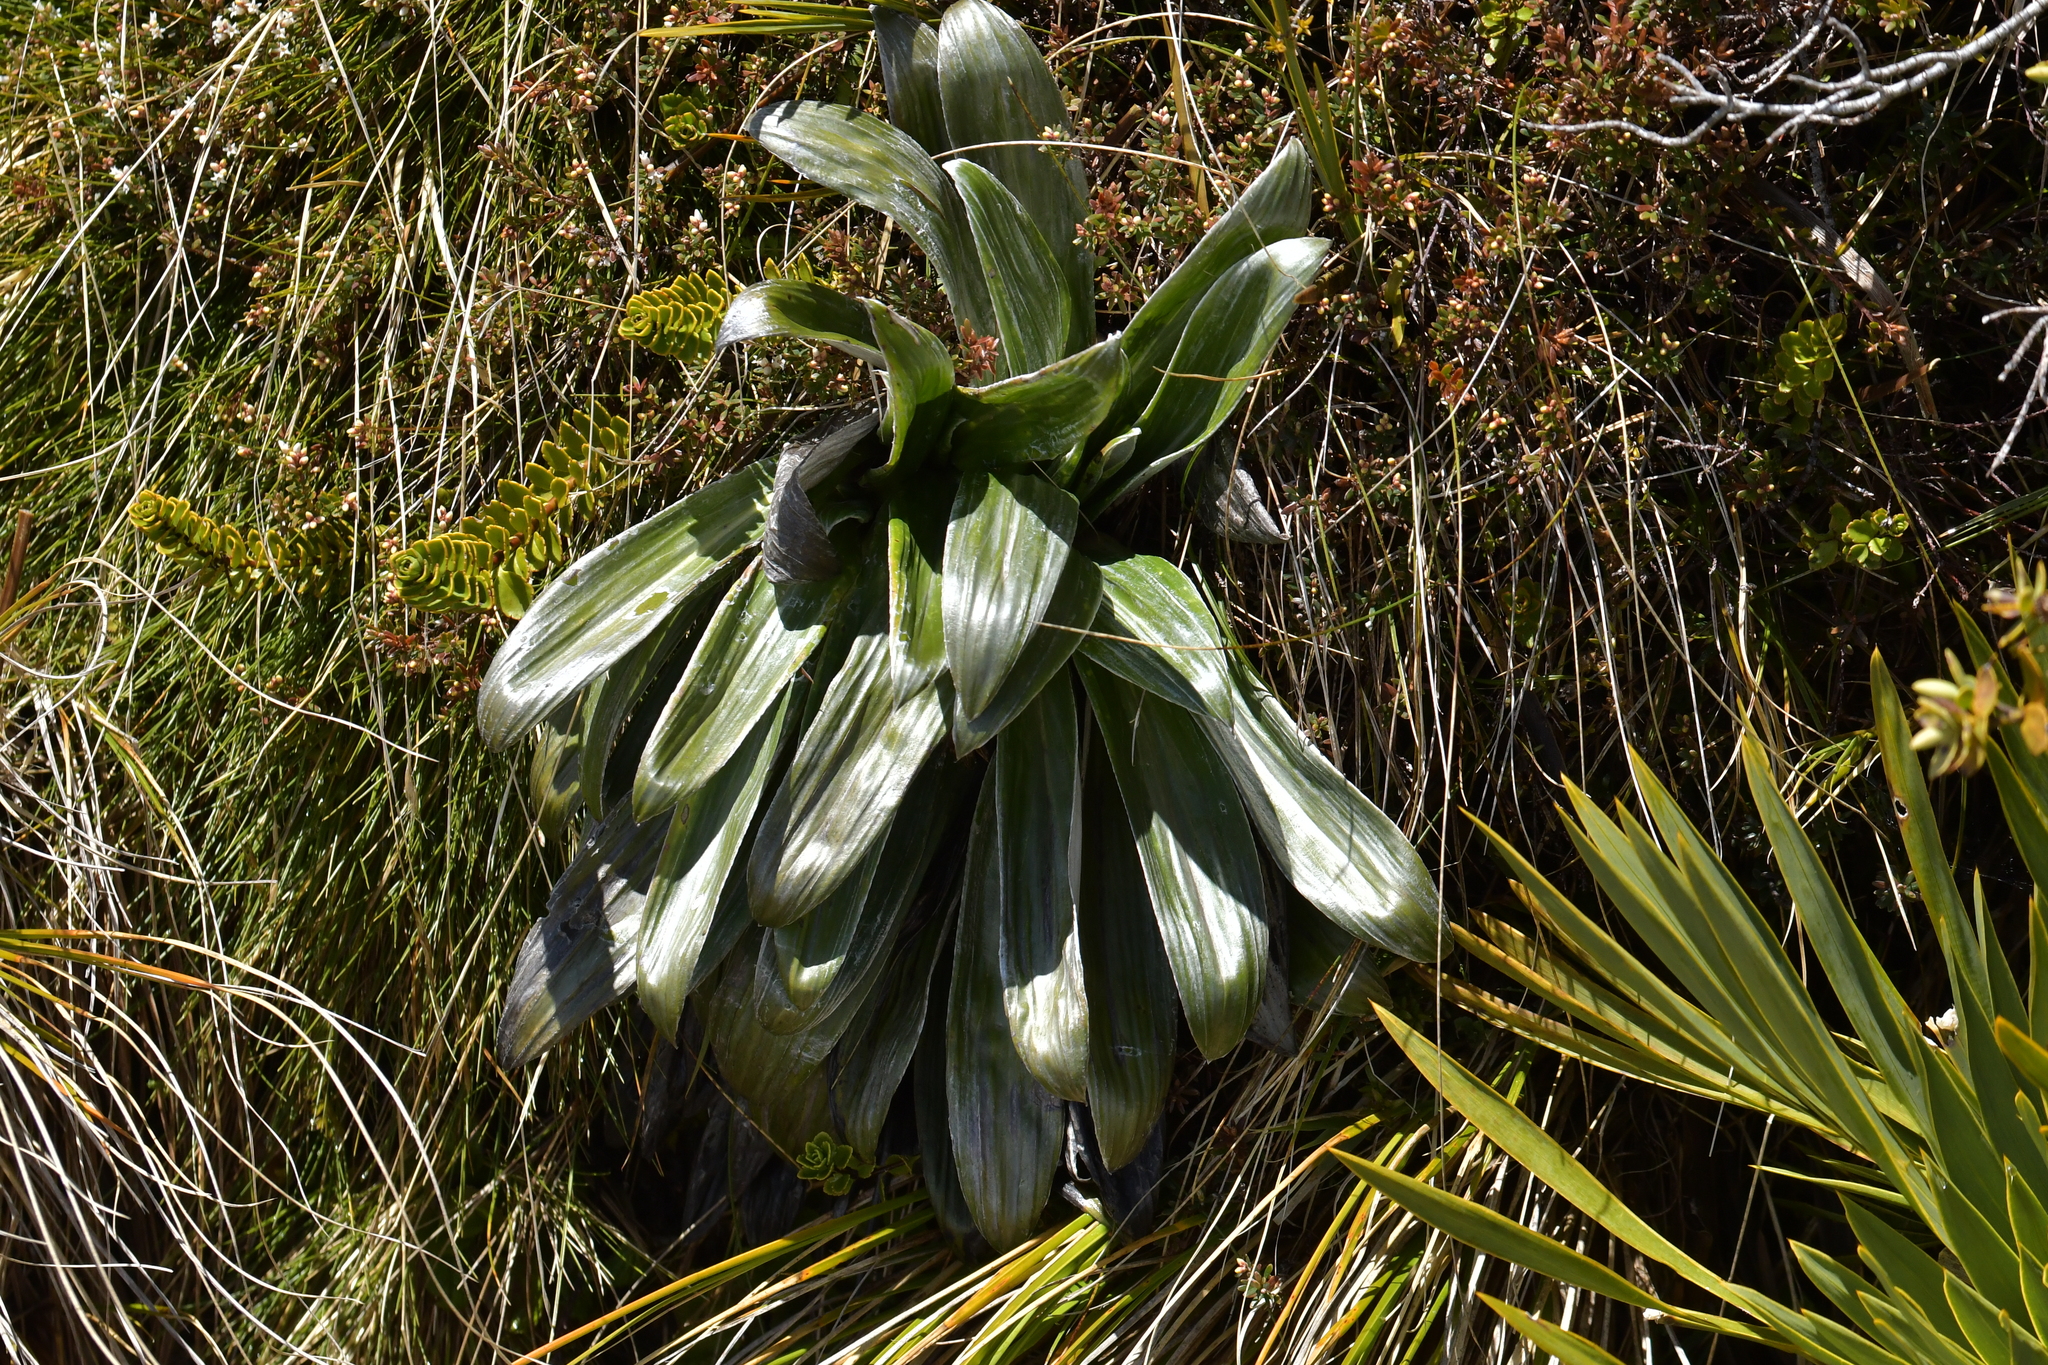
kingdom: Plantae
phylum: Tracheophyta
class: Magnoliopsida
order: Asterales
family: Asteraceae
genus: Celmisia
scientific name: Celmisia semicordata
